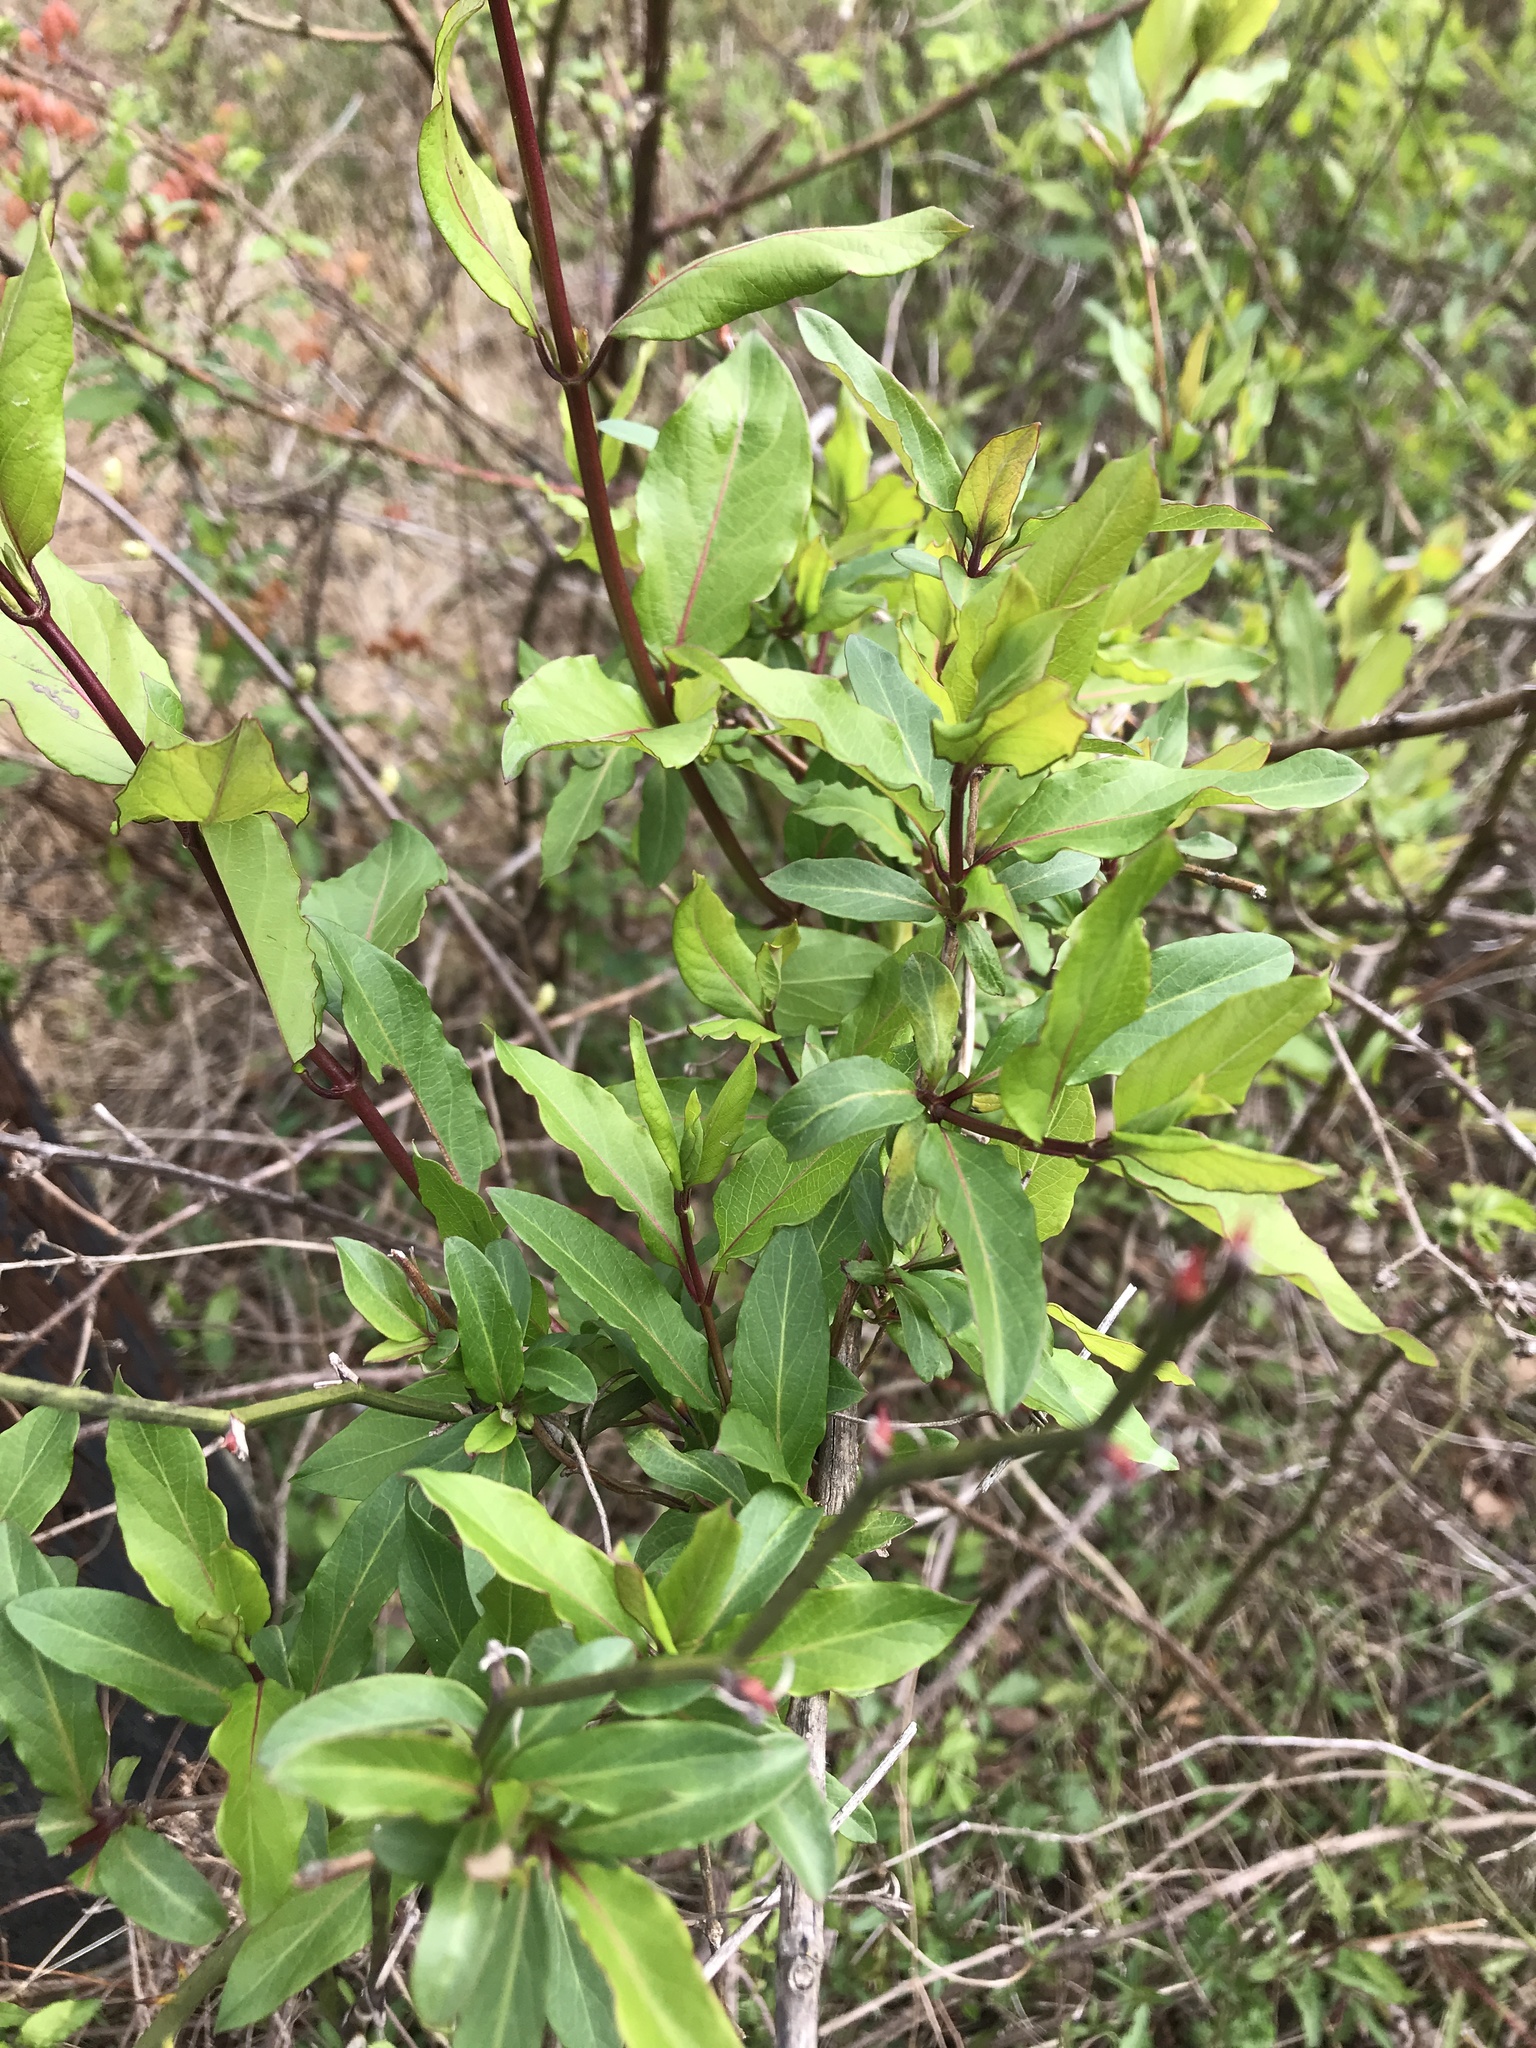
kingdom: Plantae
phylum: Tracheophyta
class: Magnoliopsida
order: Dipsacales
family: Caprifoliaceae
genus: Lonicera
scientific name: Lonicera japonica
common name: Japanese honeysuckle
